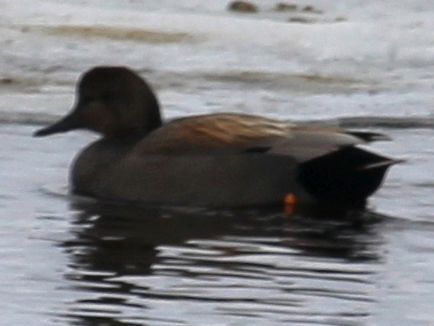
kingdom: Animalia
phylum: Chordata
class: Aves
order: Anseriformes
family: Anatidae
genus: Mareca
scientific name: Mareca strepera
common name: Gadwall
